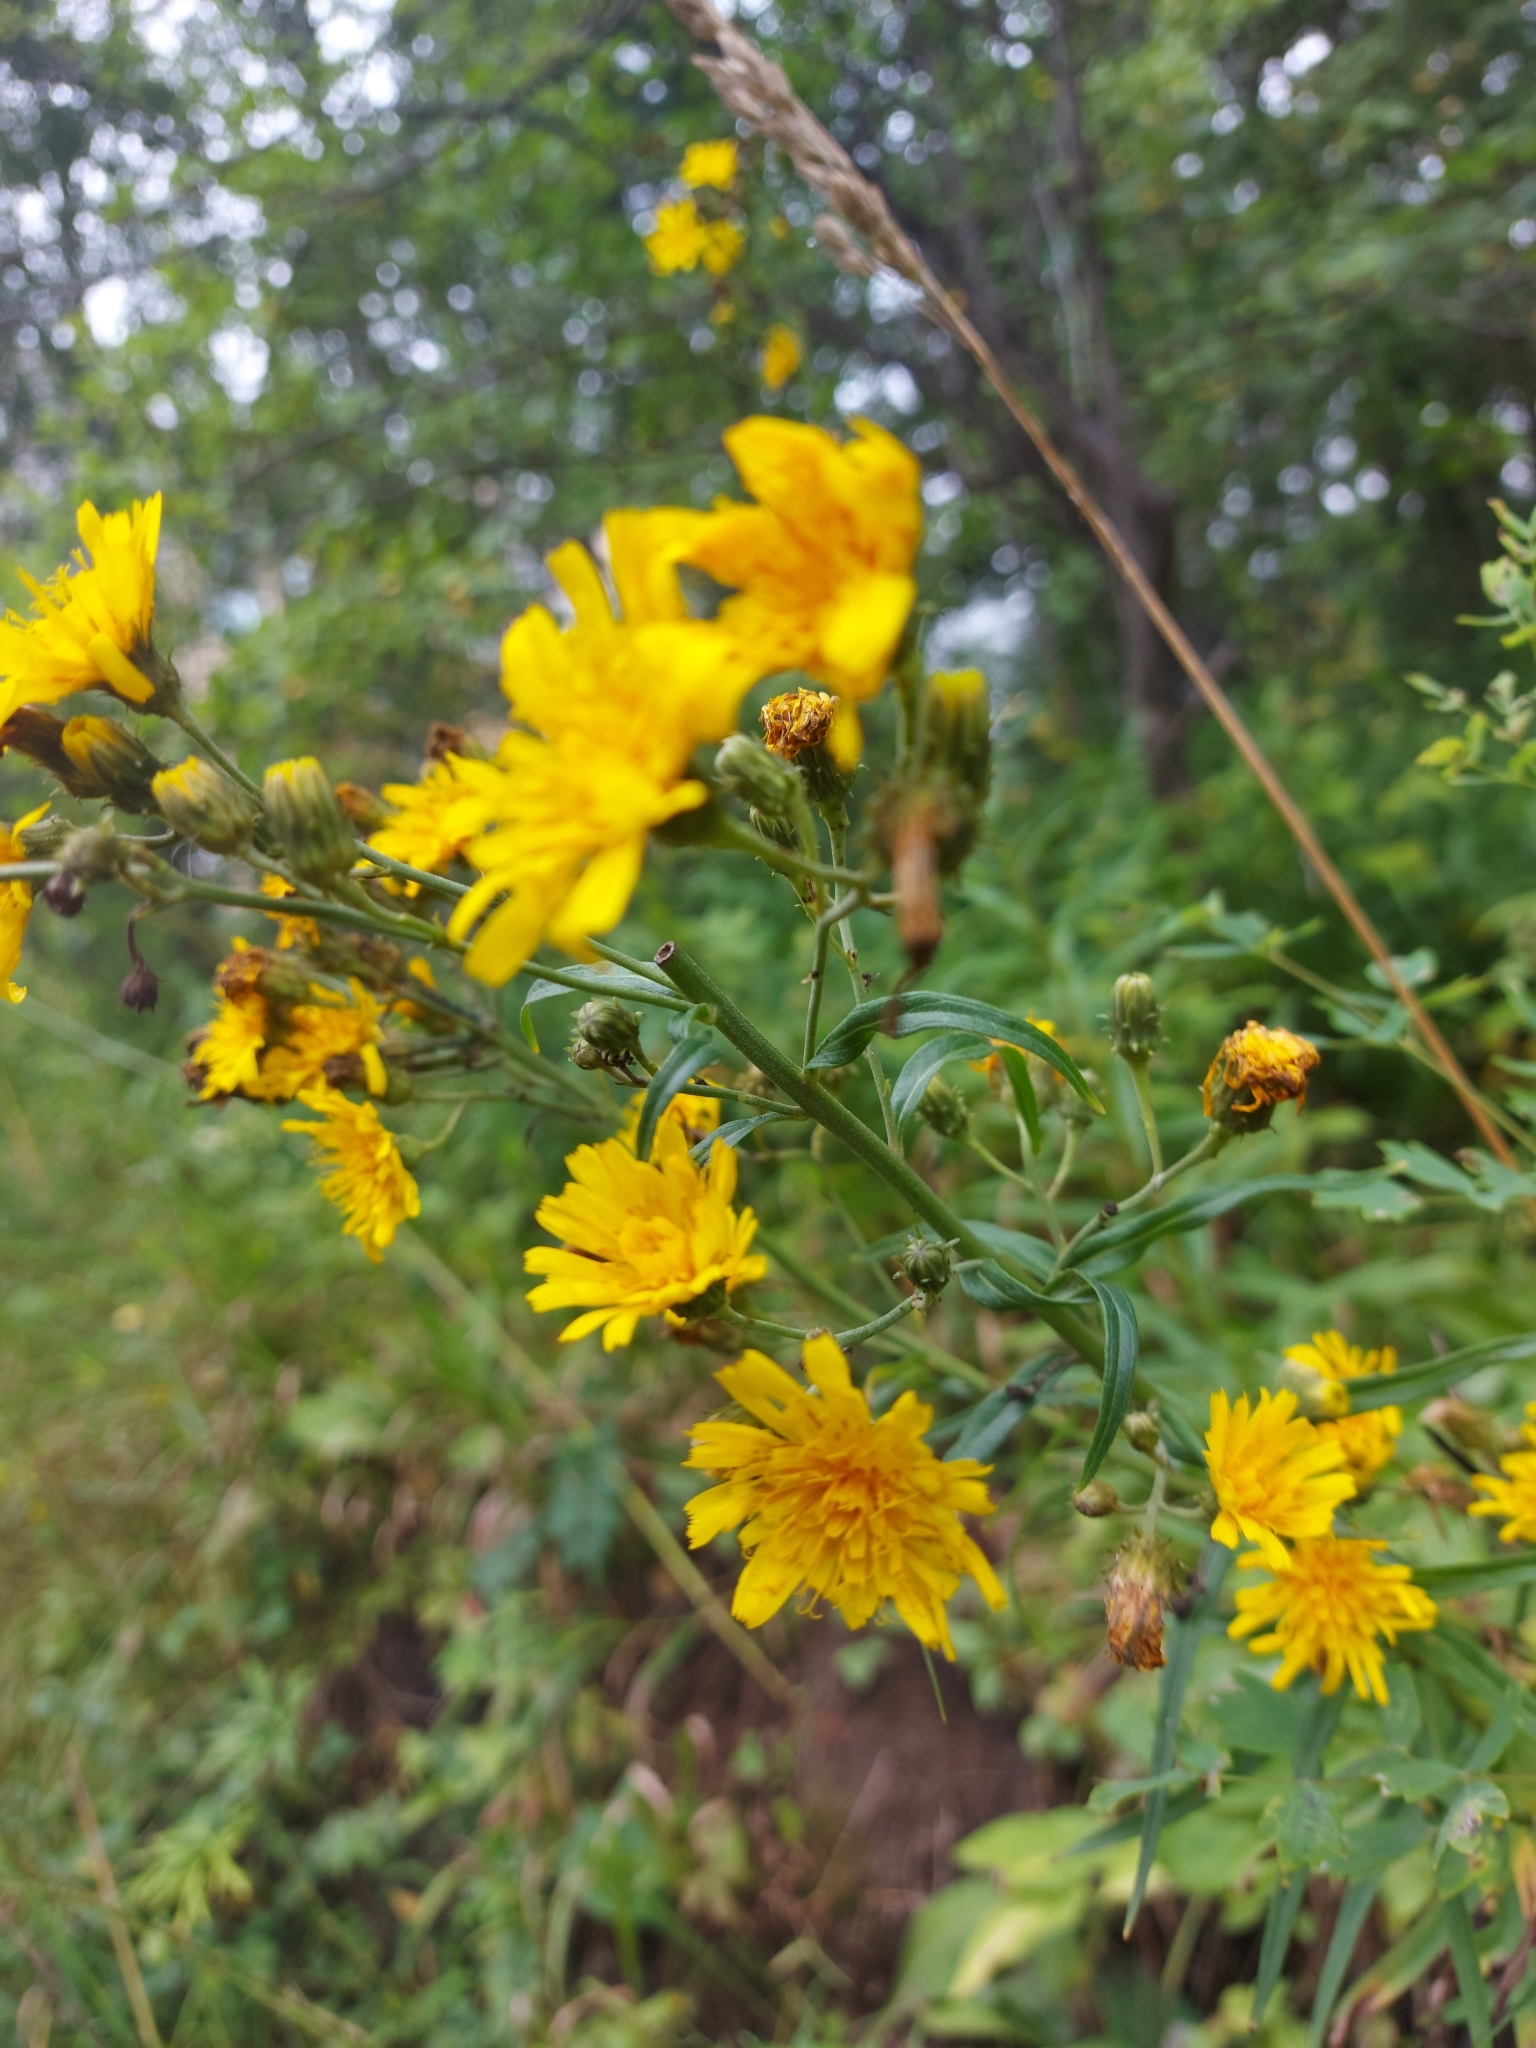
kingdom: Plantae
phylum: Tracheophyta
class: Magnoliopsida
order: Asterales
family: Asteraceae
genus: Hieracium
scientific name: Hieracium umbellatum
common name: Northern hawkweed
